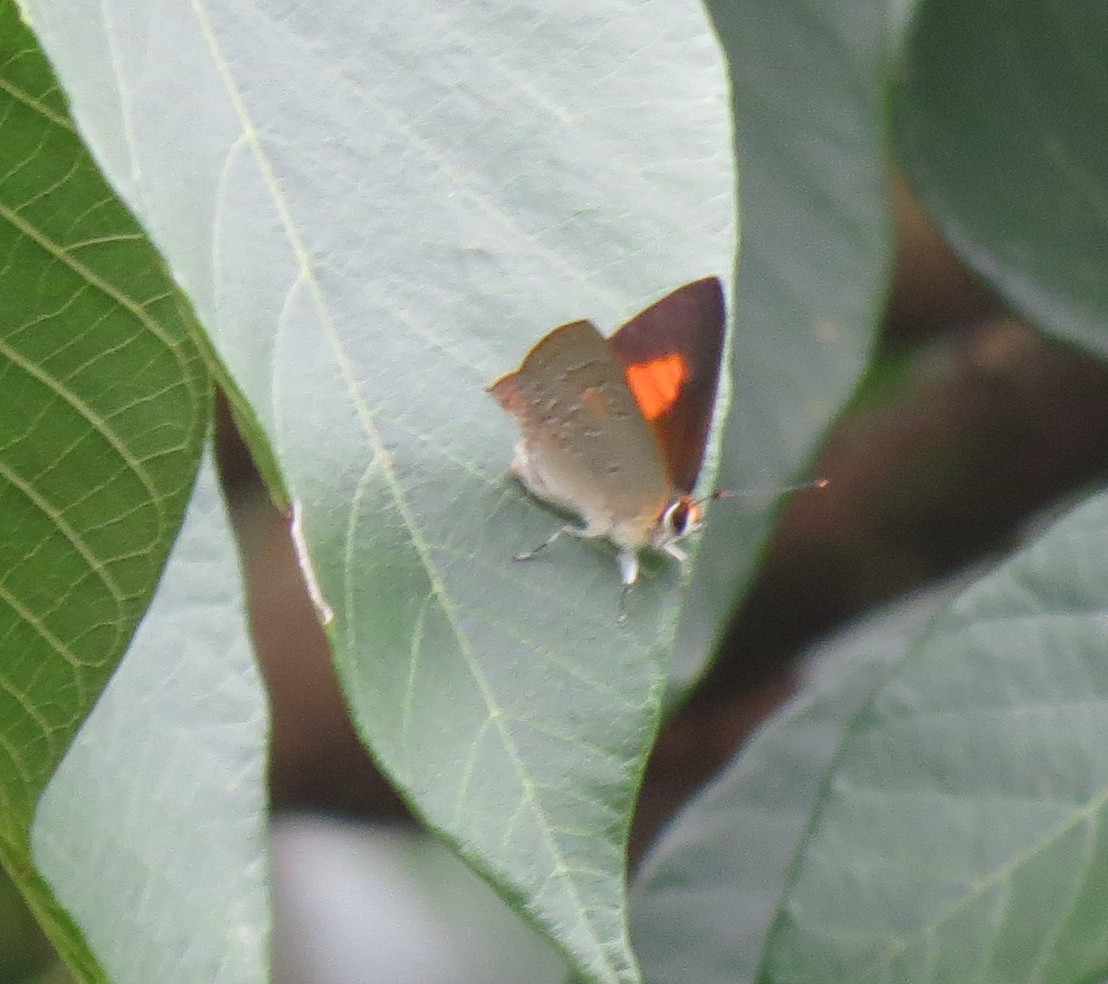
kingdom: Animalia
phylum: Arthropoda
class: Insecta
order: Lepidoptera
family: Lycaenidae
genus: Deudorix
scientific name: Deudorix diocles
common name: Orange-barred playboy
